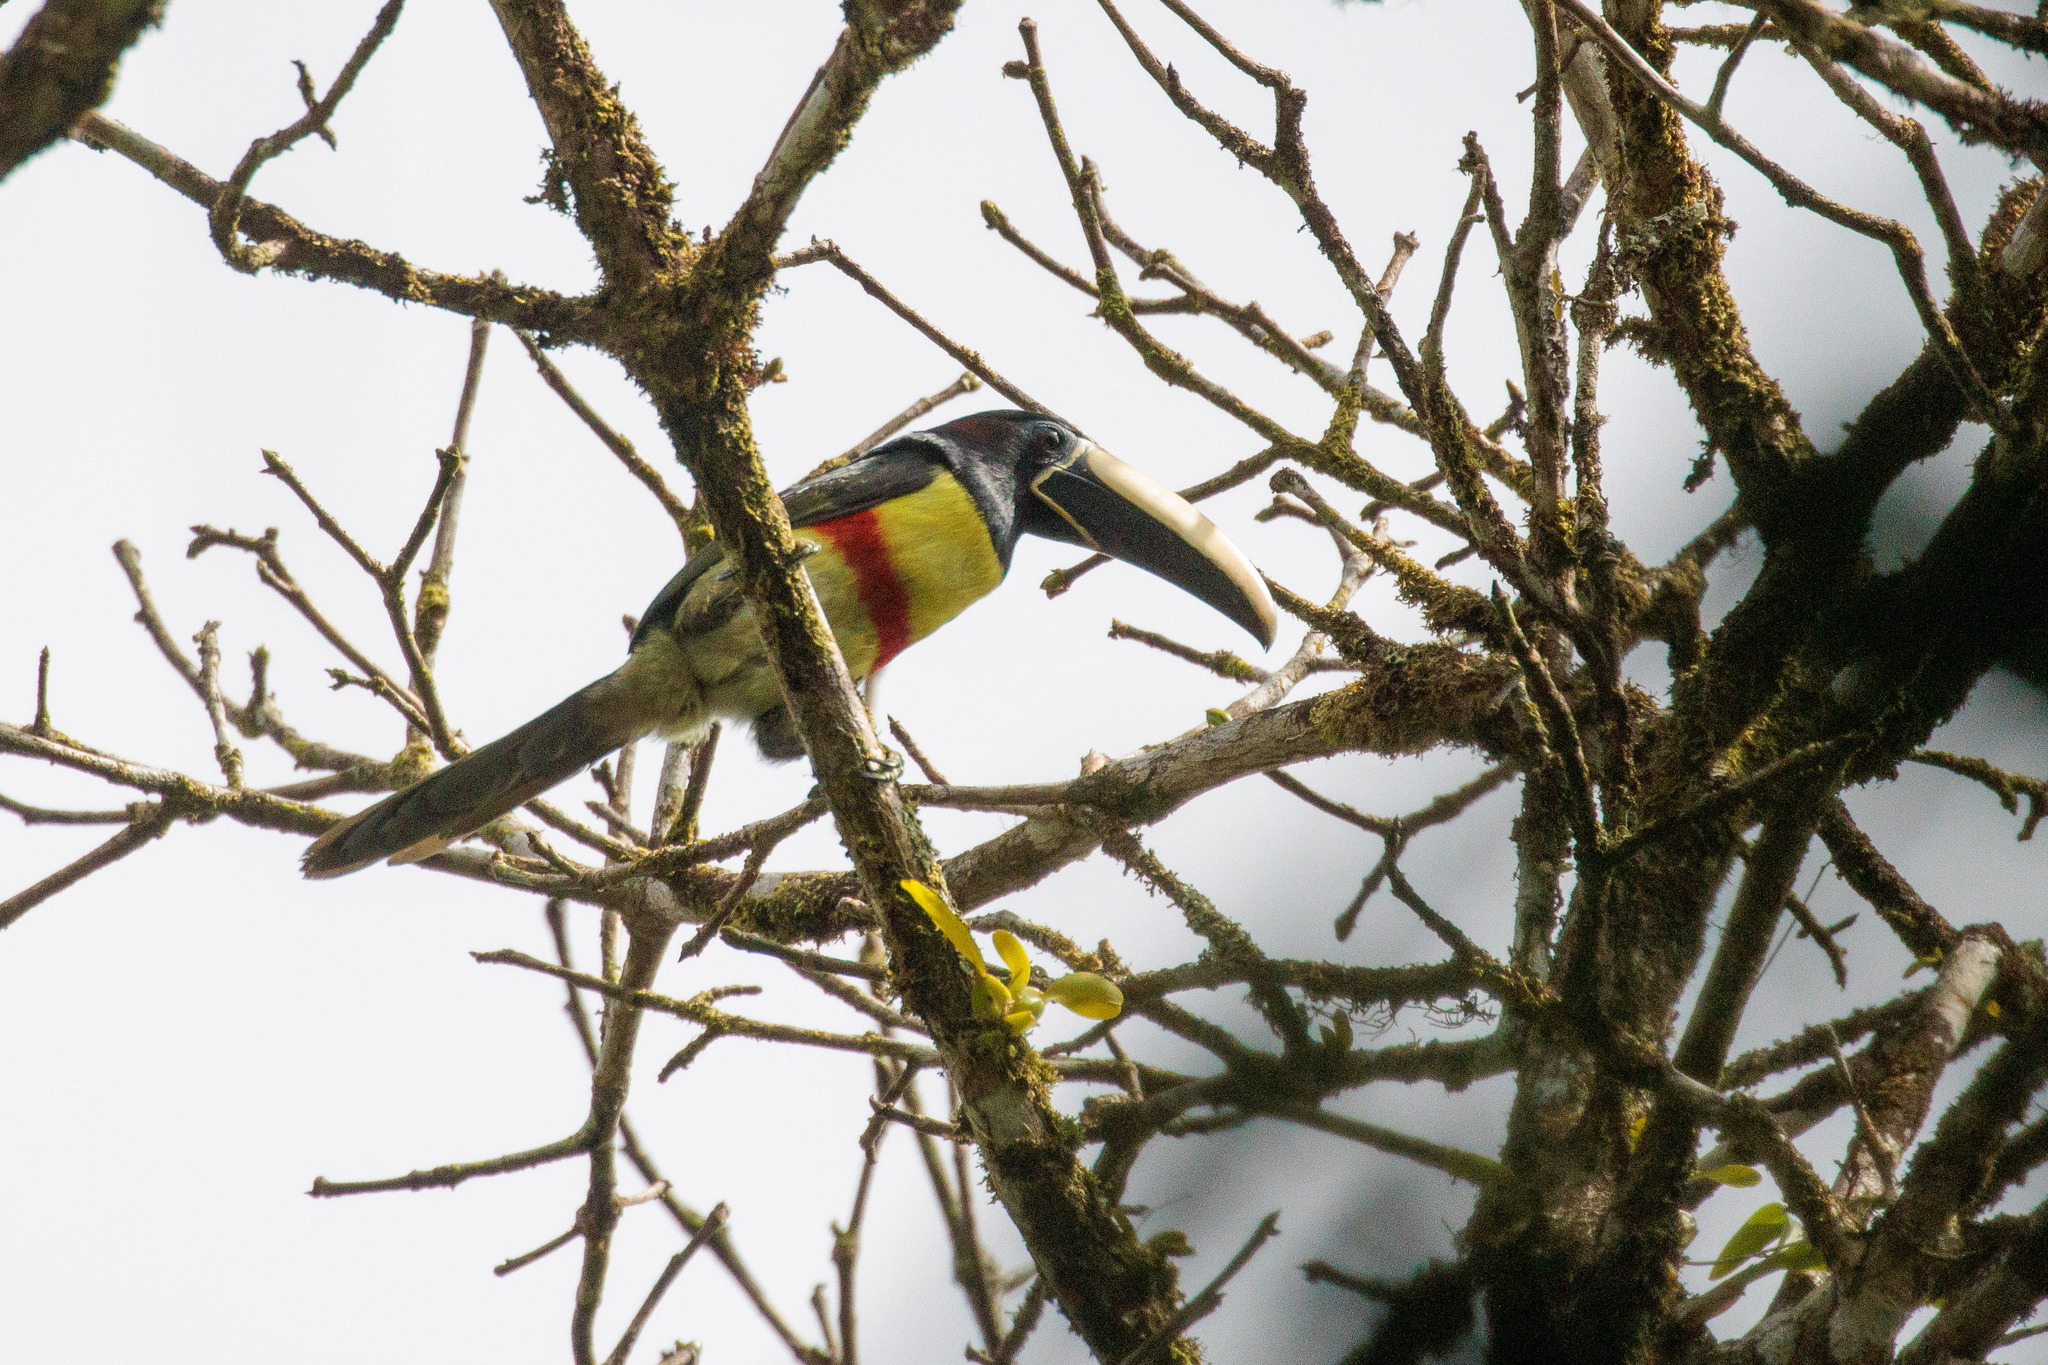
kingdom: Animalia
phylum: Chordata
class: Aves
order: Piciformes
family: Ramphastidae
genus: Pteroglossus
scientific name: Pteroglossus aracari
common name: Black-necked aracari
